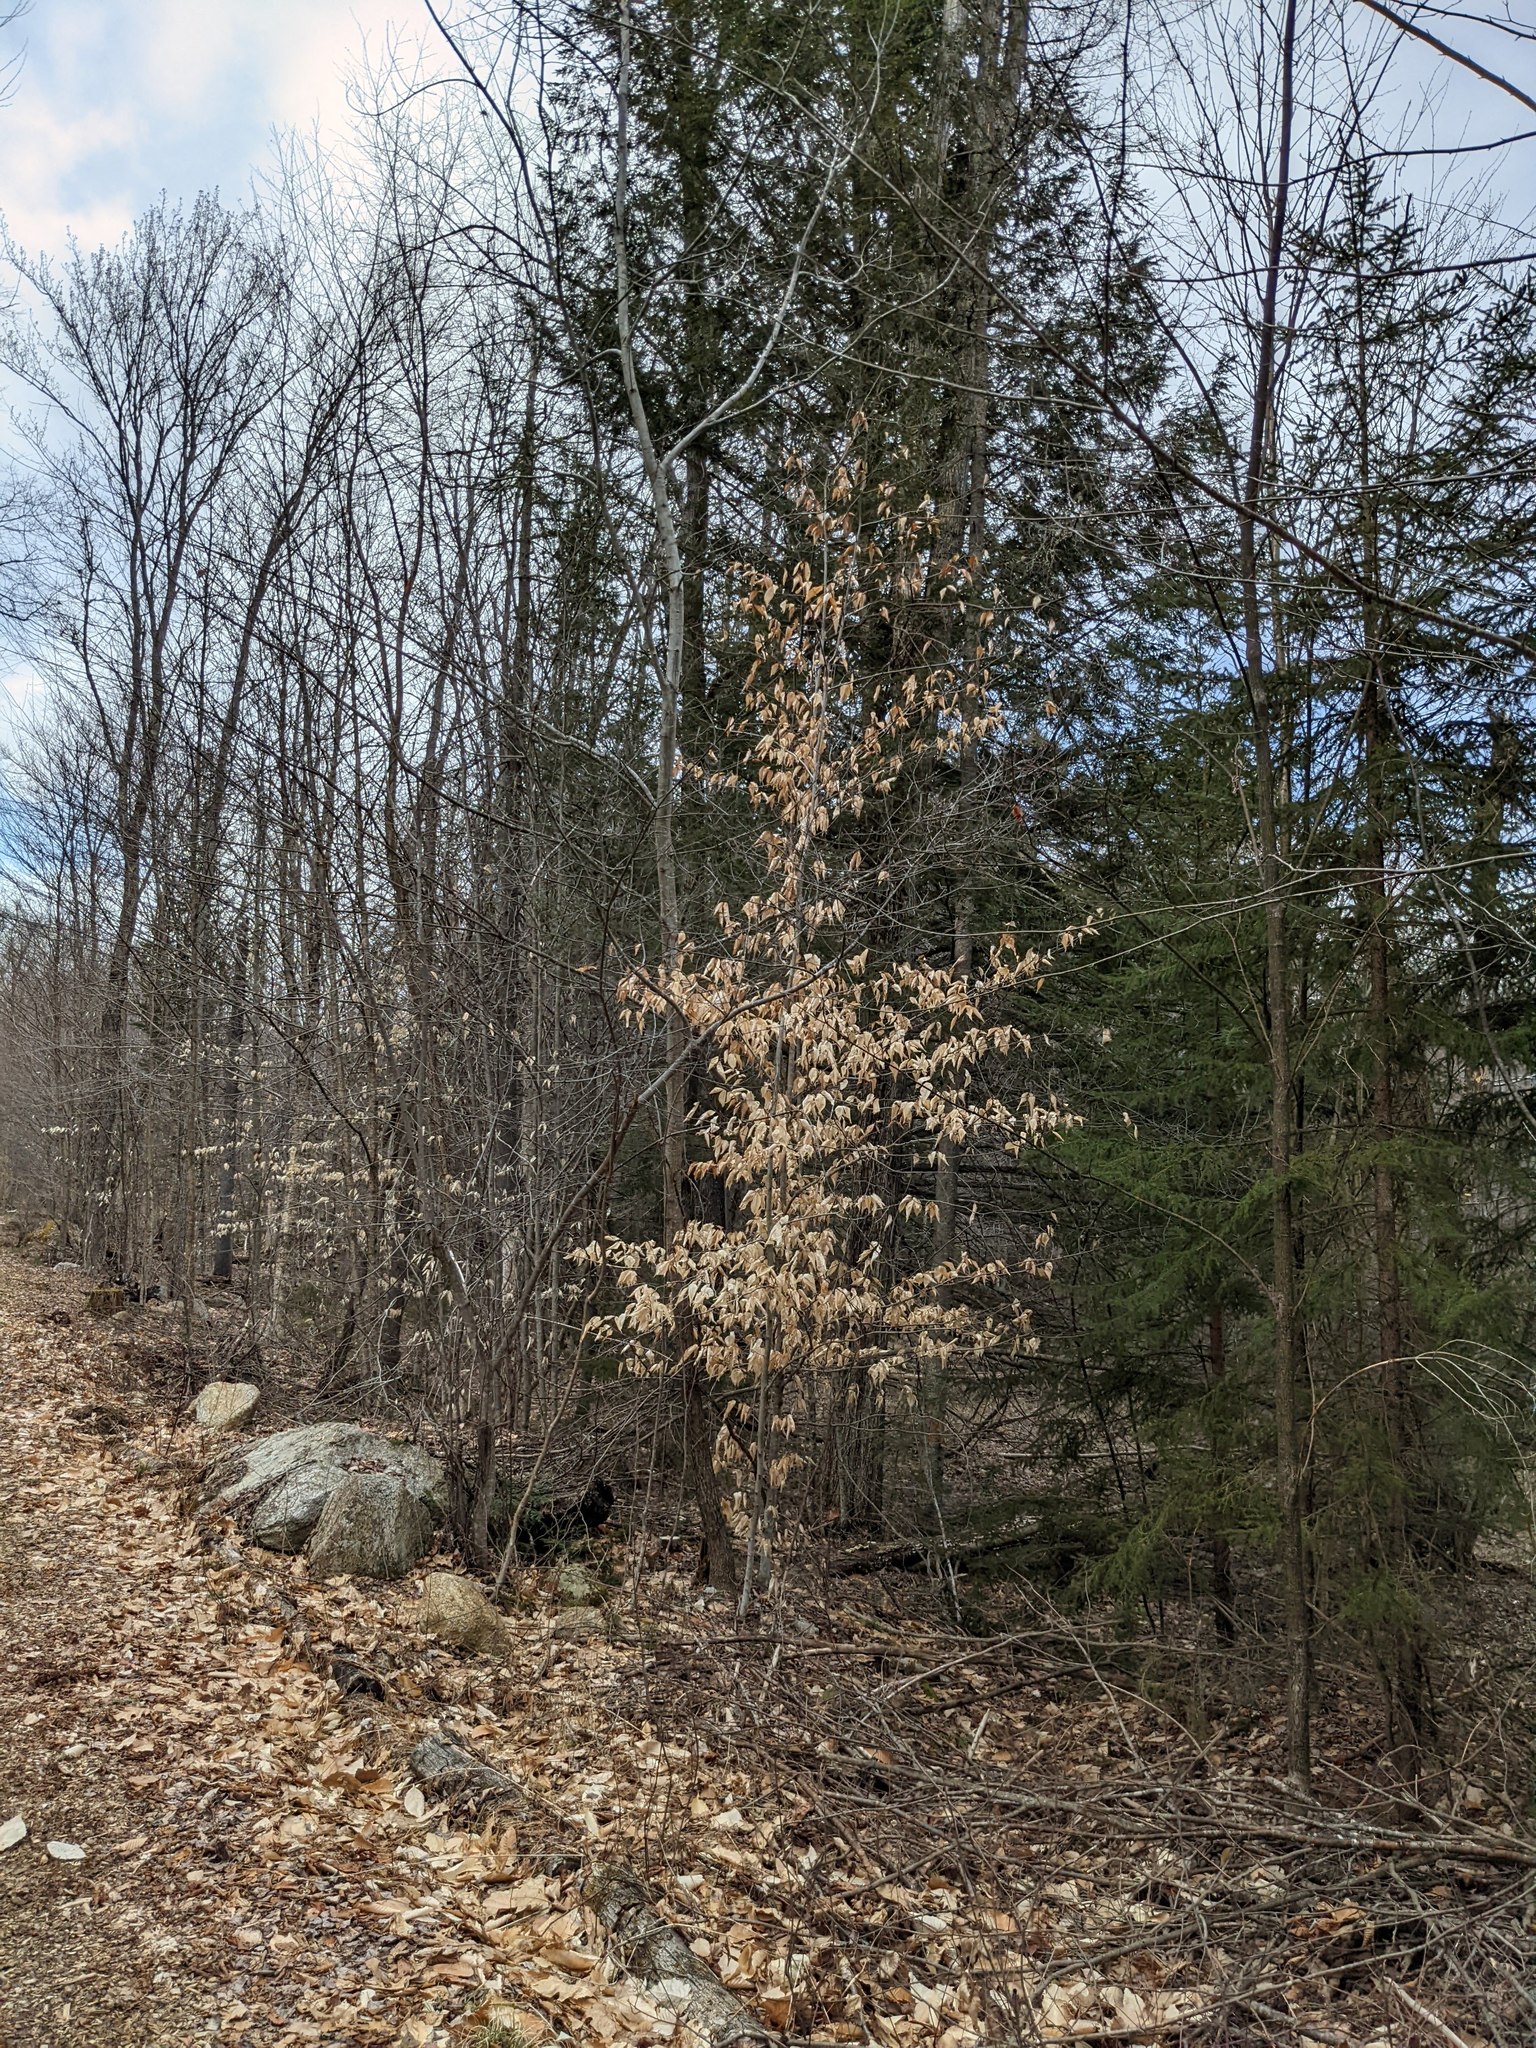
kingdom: Plantae
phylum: Tracheophyta
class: Magnoliopsida
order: Fagales
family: Fagaceae
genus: Fagus
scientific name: Fagus grandifolia
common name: American beech
